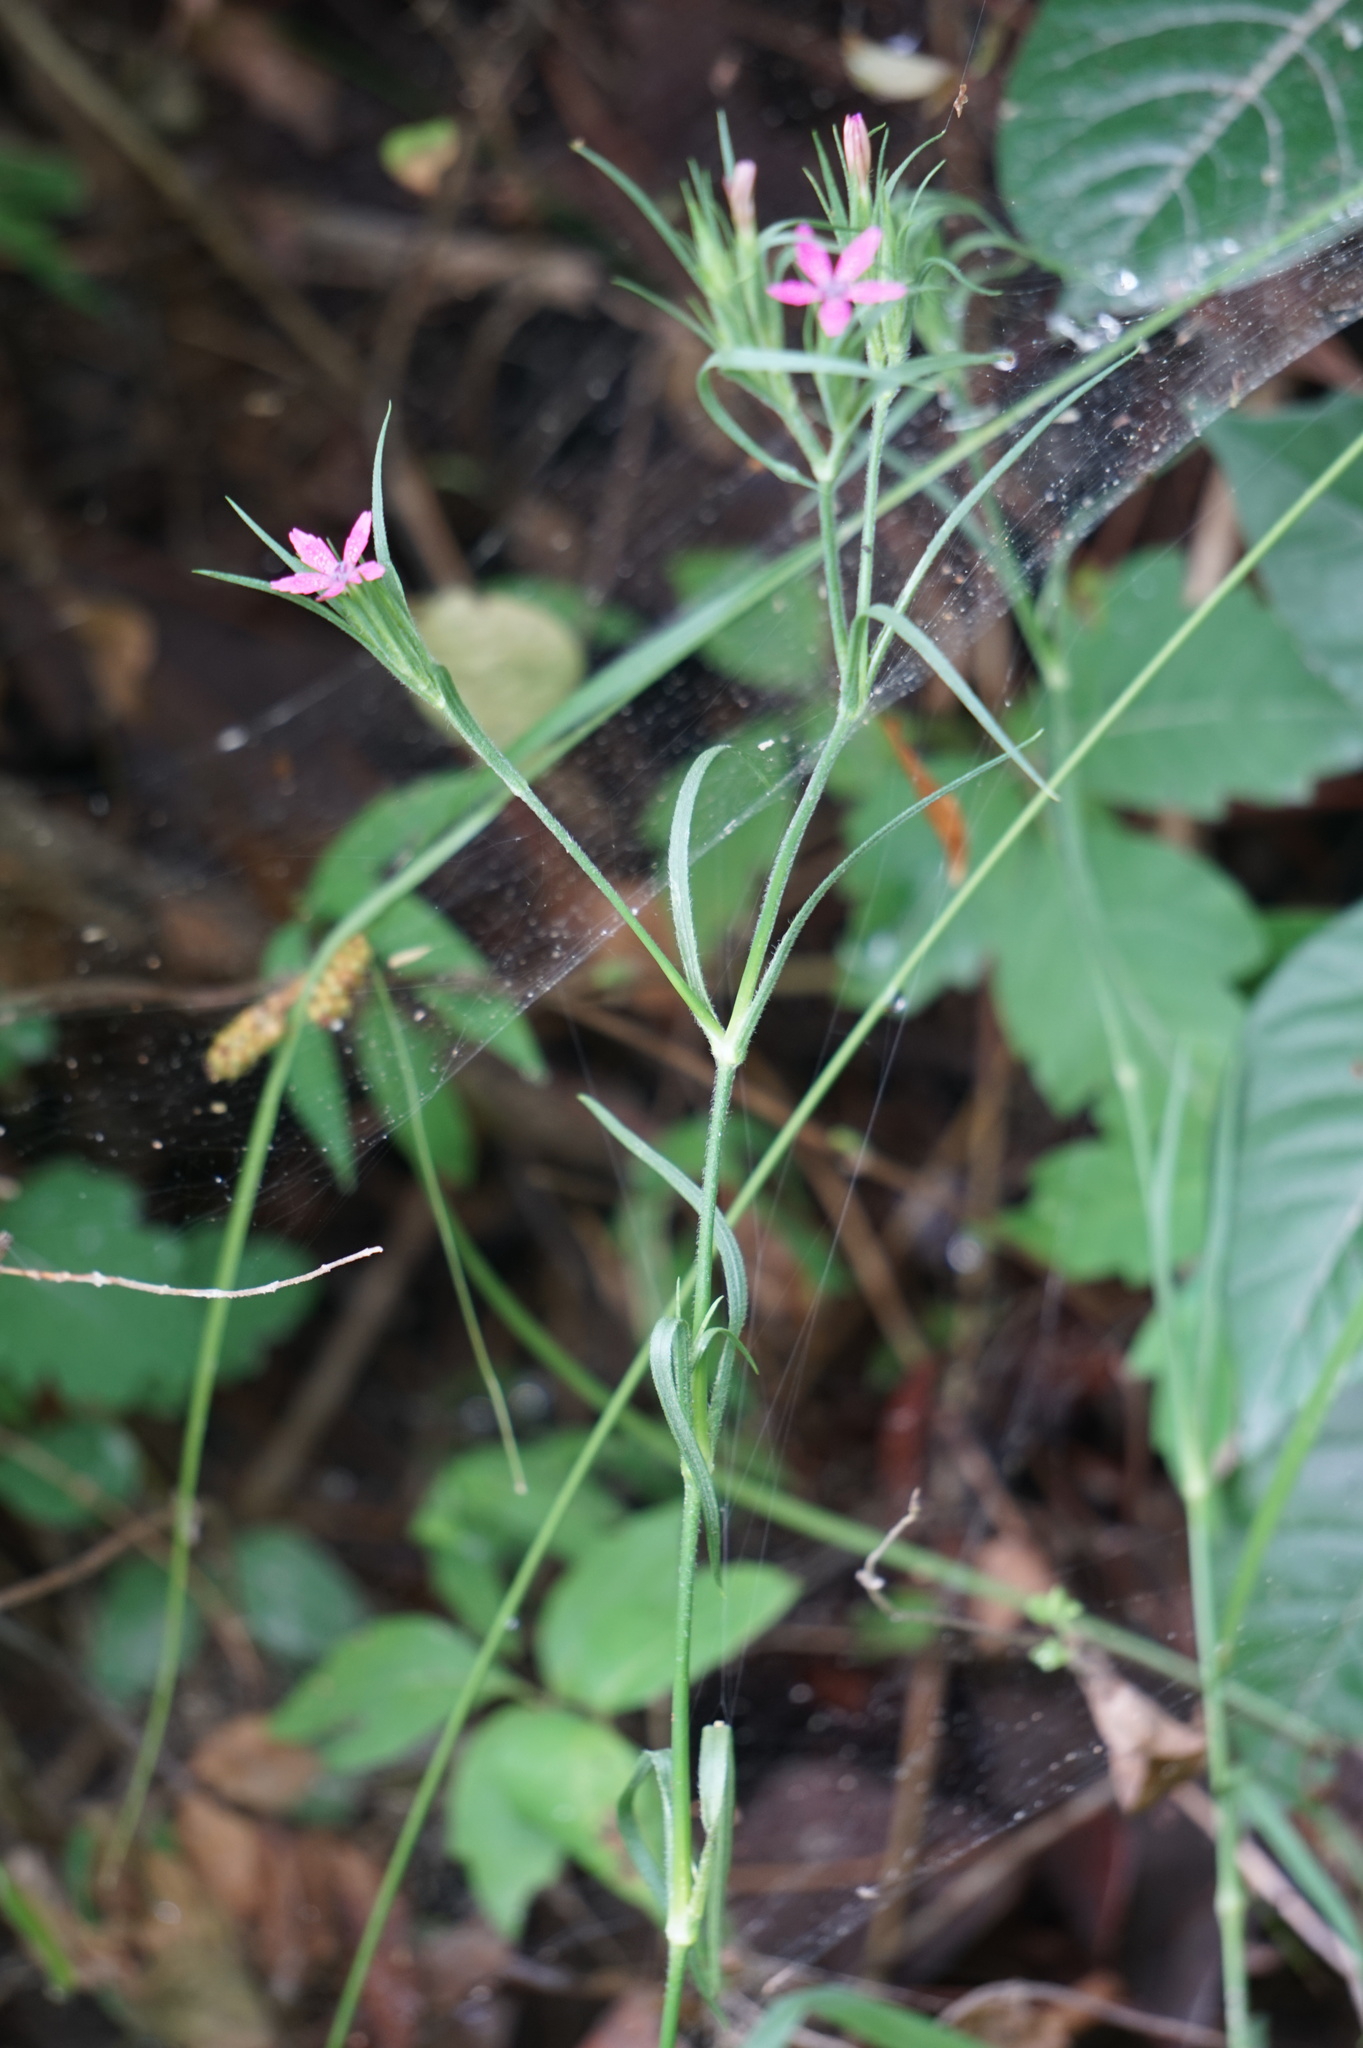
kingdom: Plantae
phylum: Tracheophyta
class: Magnoliopsida
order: Caryophyllales
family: Caryophyllaceae
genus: Dianthus
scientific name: Dianthus armeria
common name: Deptford pink
